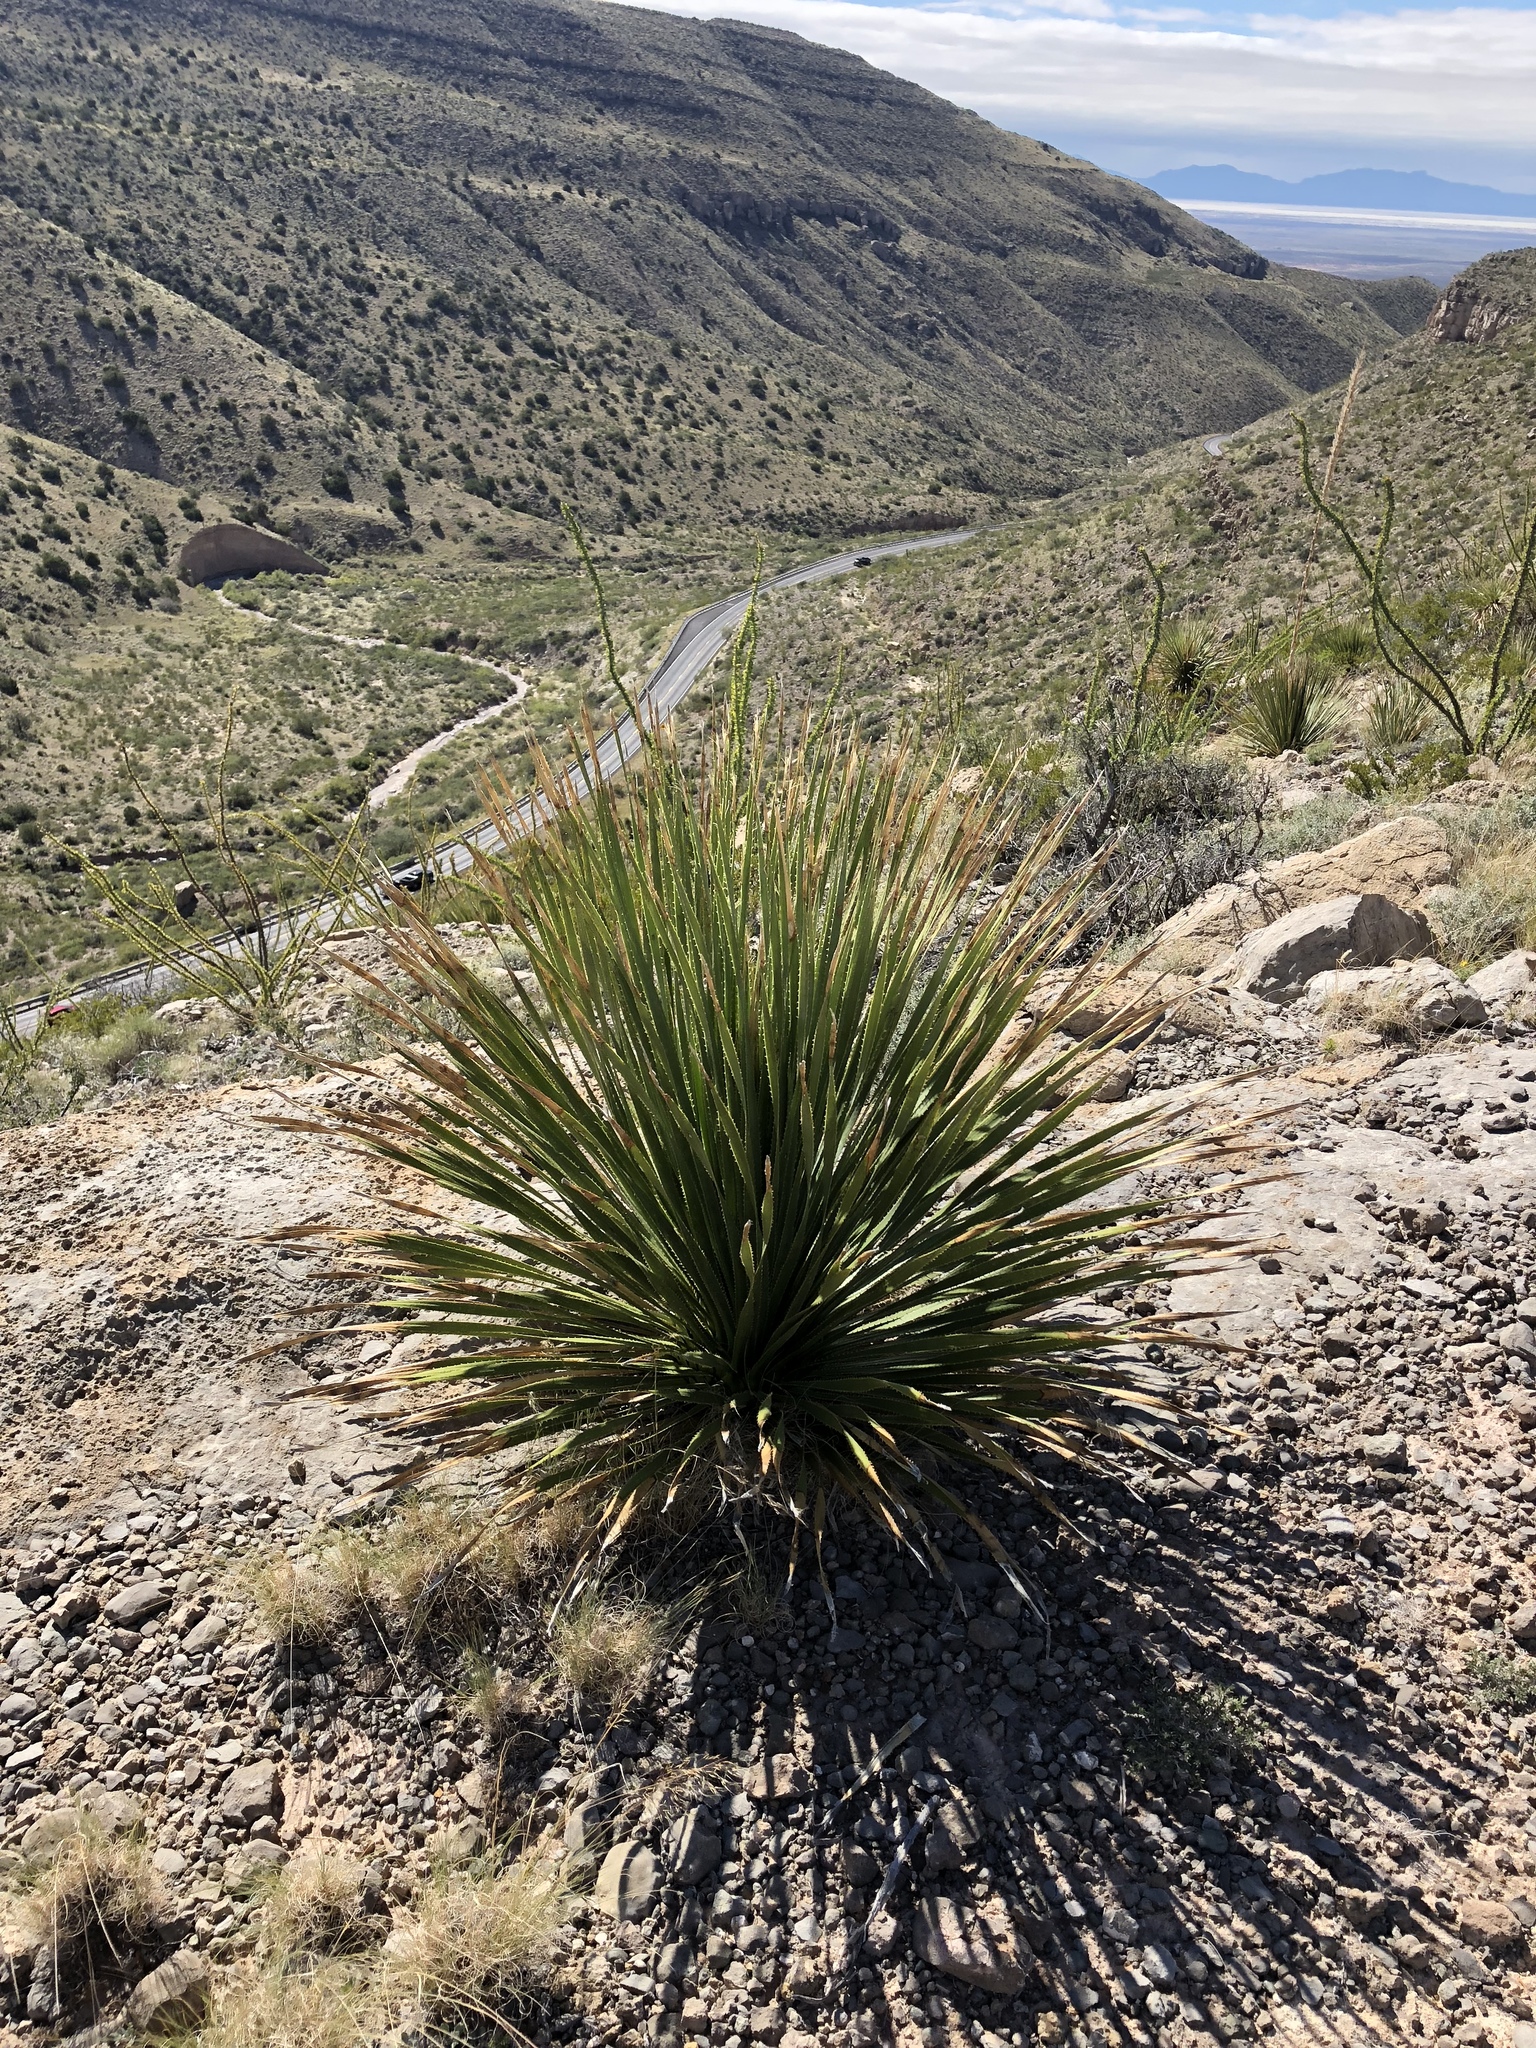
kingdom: Plantae
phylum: Tracheophyta
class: Liliopsida
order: Asparagales
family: Asparagaceae
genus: Dasylirion
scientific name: Dasylirion wheeleri
